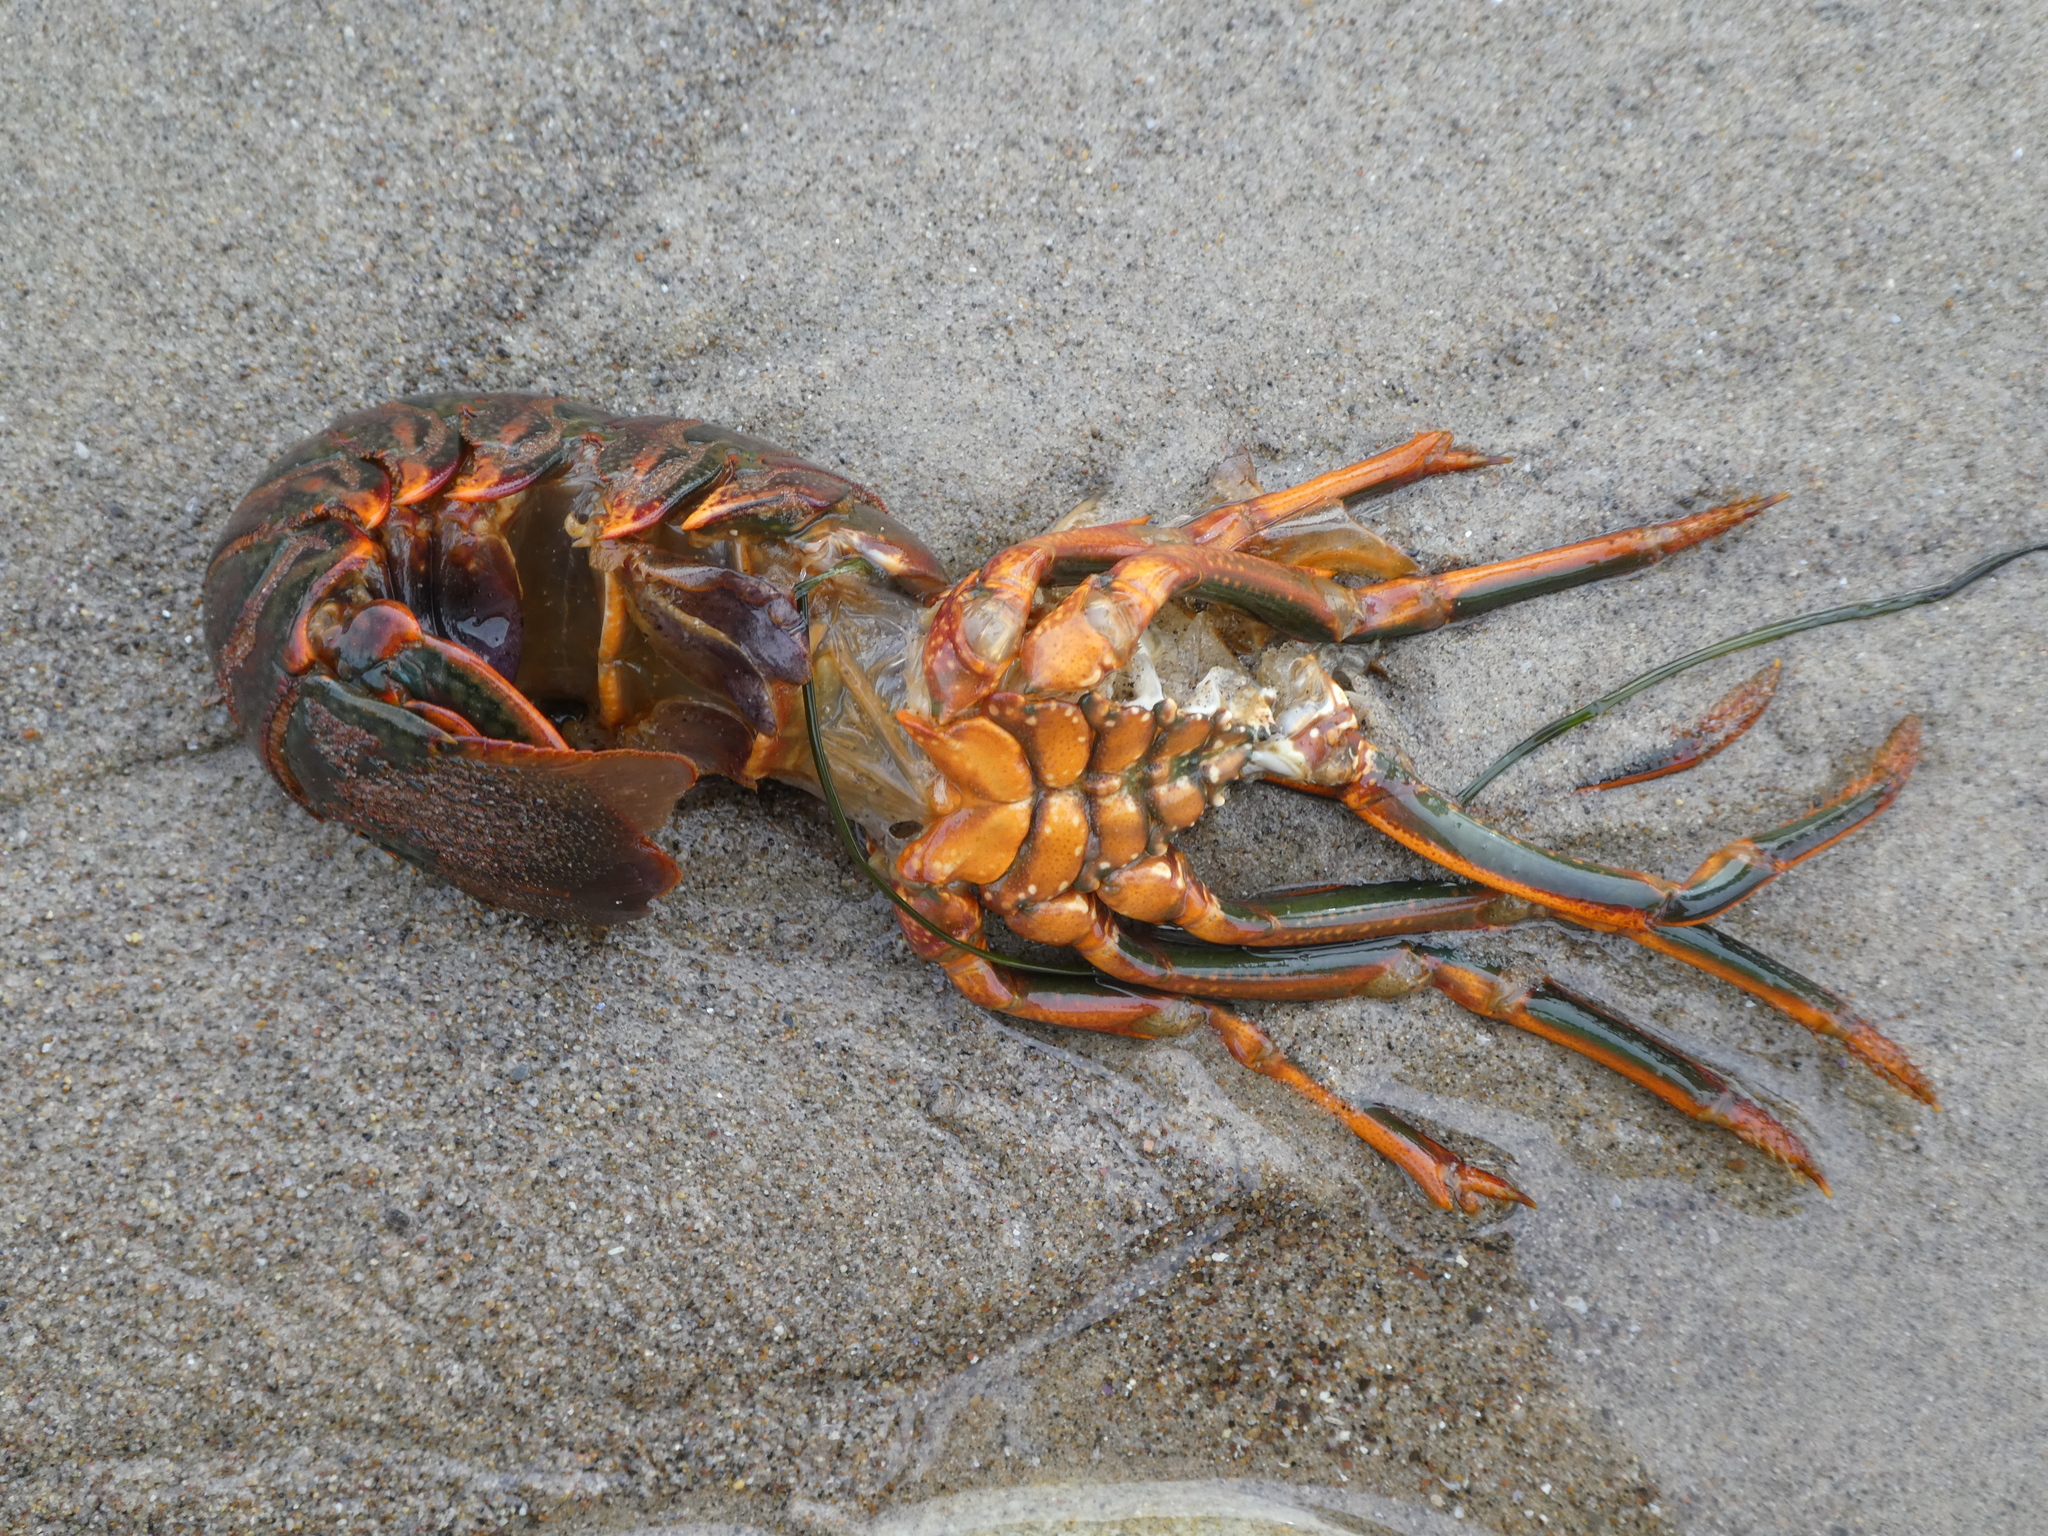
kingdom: Animalia
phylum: Arthropoda
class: Malacostraca
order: Decapoda
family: Palinuridae
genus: Panulirus
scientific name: Panulirus interruptus
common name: California spiny lobster
